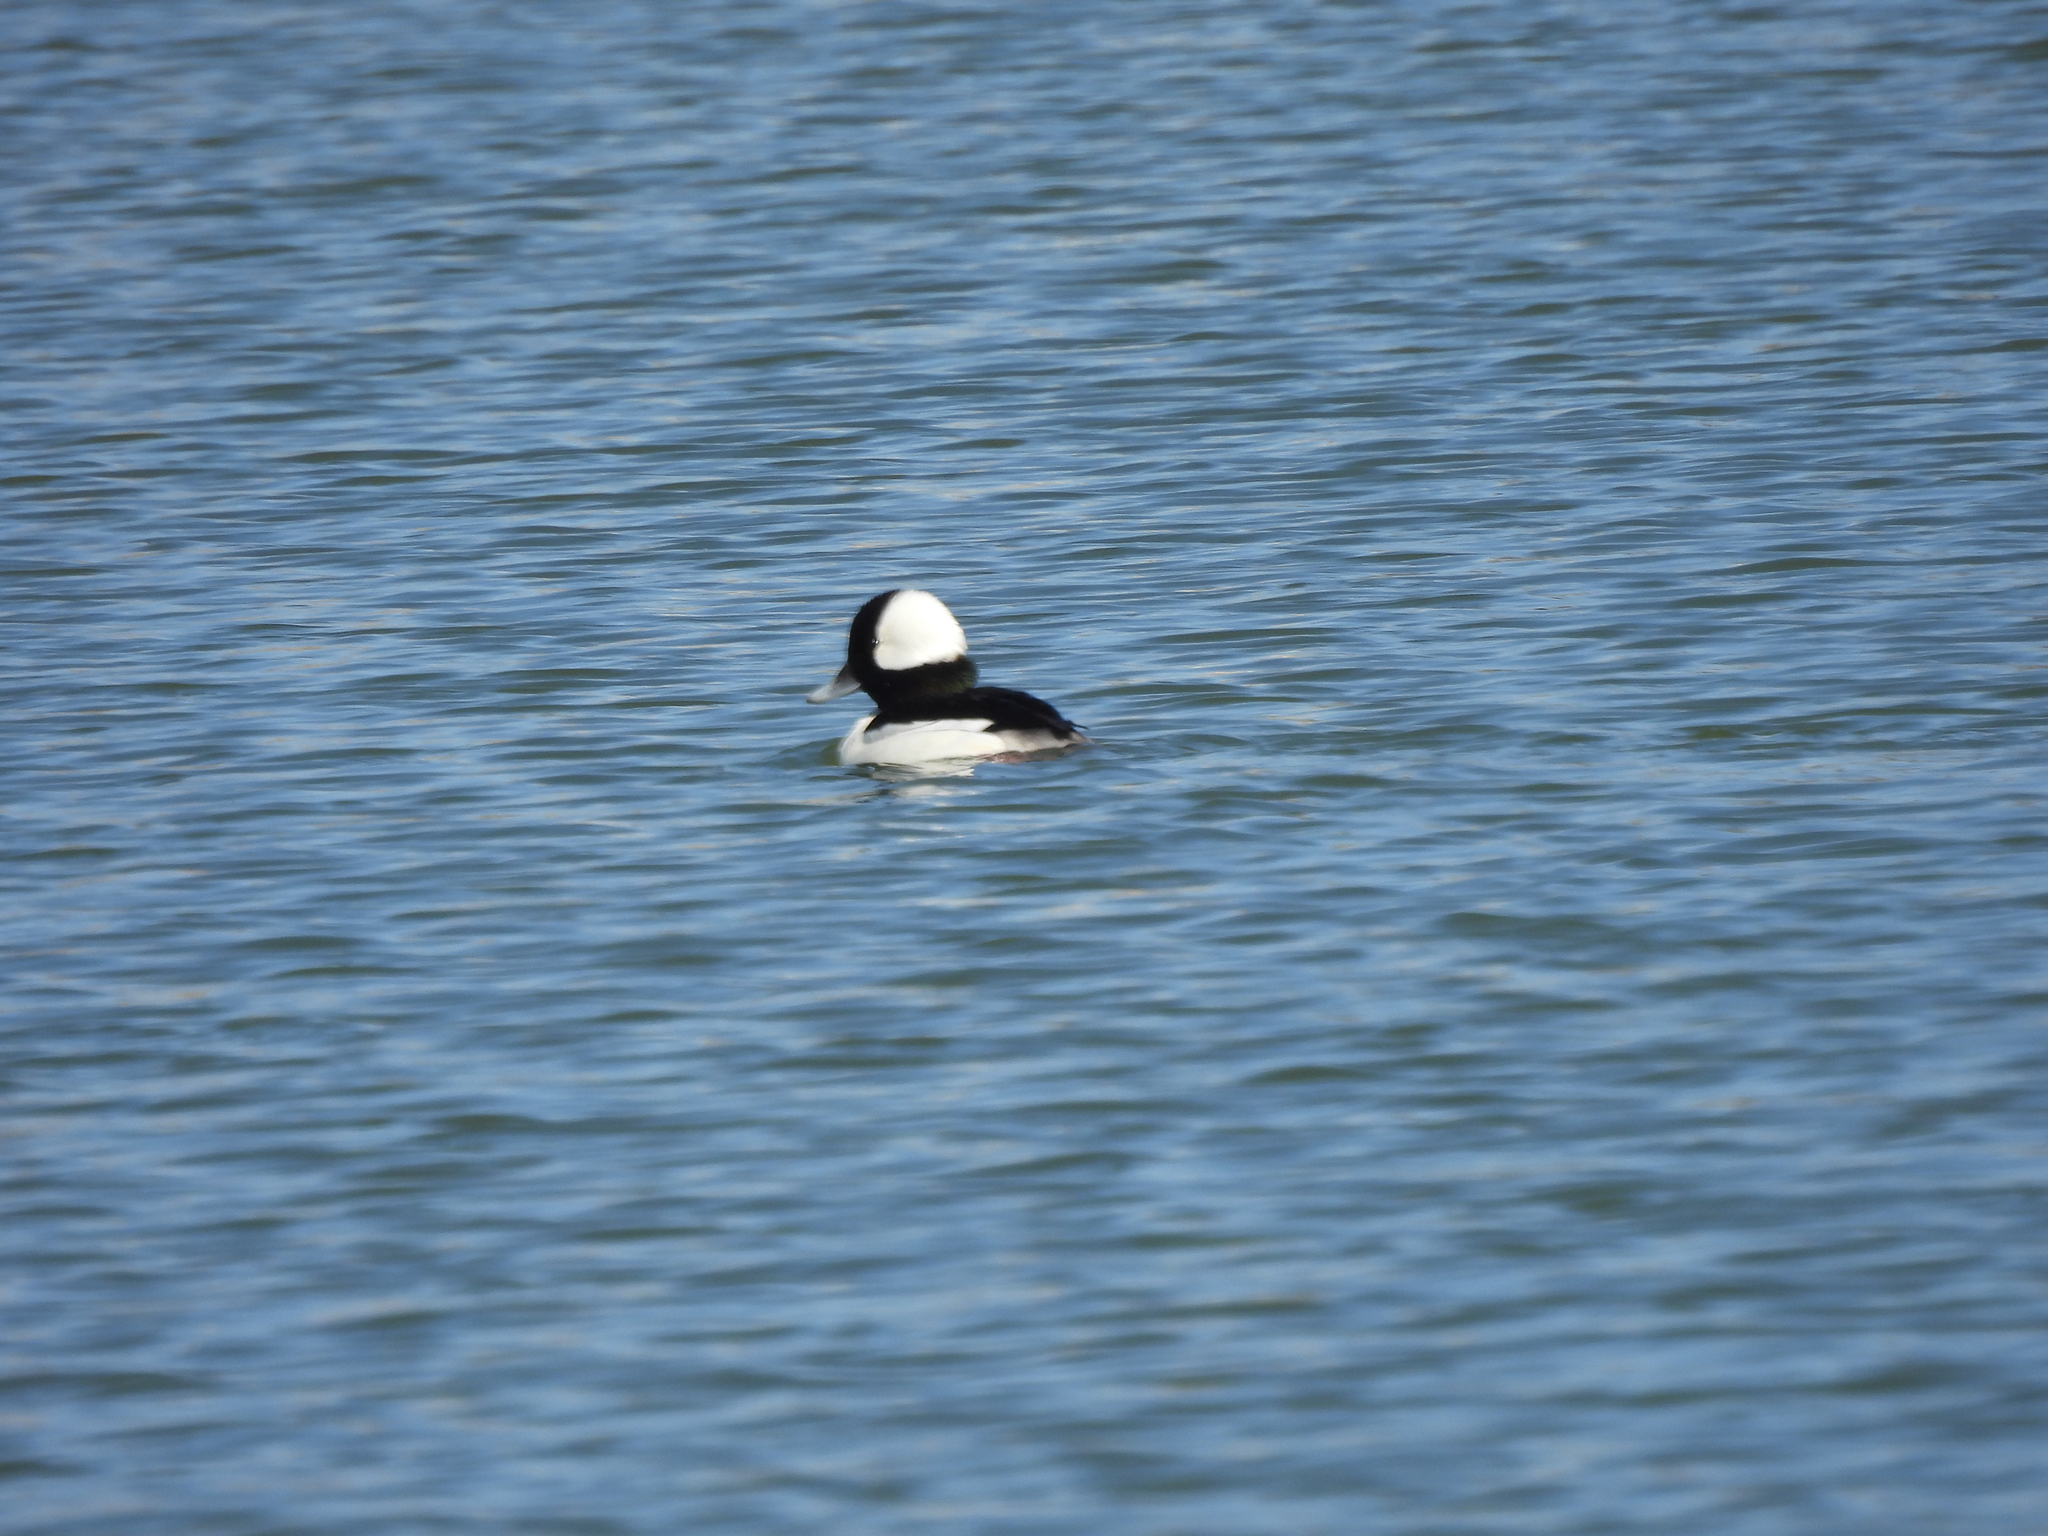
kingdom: Animalia
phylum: Chordata
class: Aves
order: Anseriformes
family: Anatidae
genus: Bucephala
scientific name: Bucephala albeola
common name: Bufflehead
